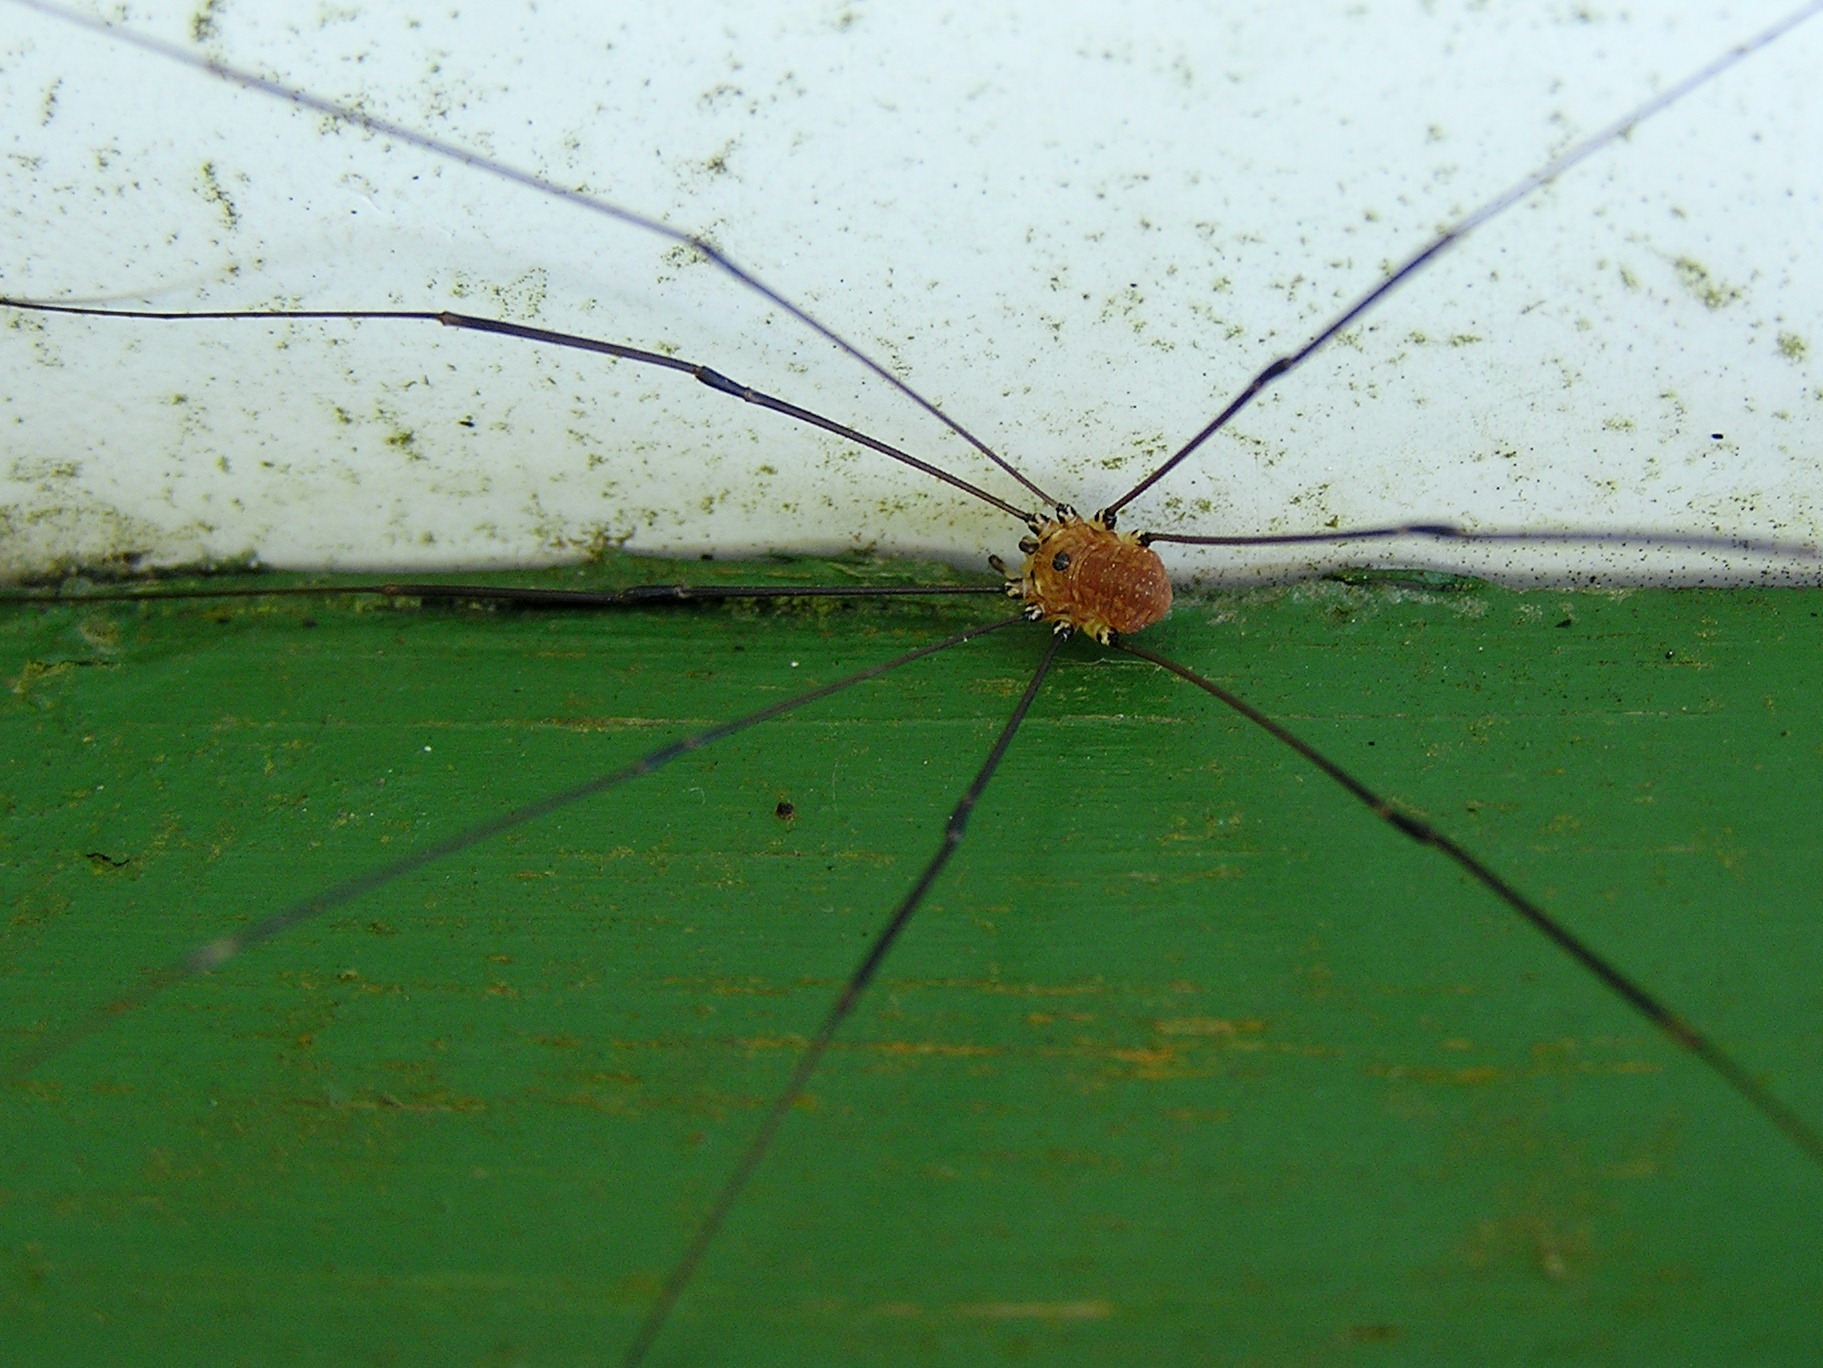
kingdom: Animalia
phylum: Arthropoda
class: Arachnida
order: Opiliones
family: Sclerosomatidae
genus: Leiobunum
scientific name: Leiobunum rotundum
